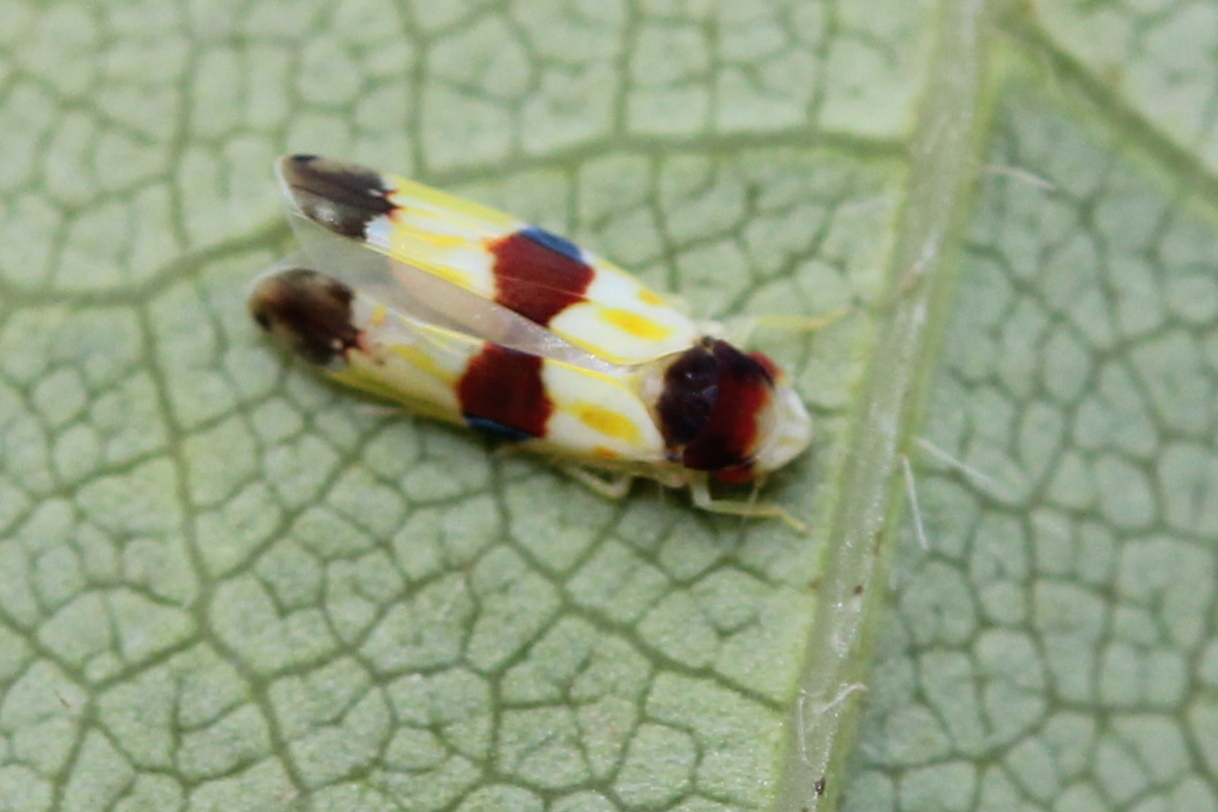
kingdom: Animalia
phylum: Arthropoda
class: Insecta
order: Hemiptera
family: Cicadellidae
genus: Erythroneura
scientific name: Erythroneura diva
